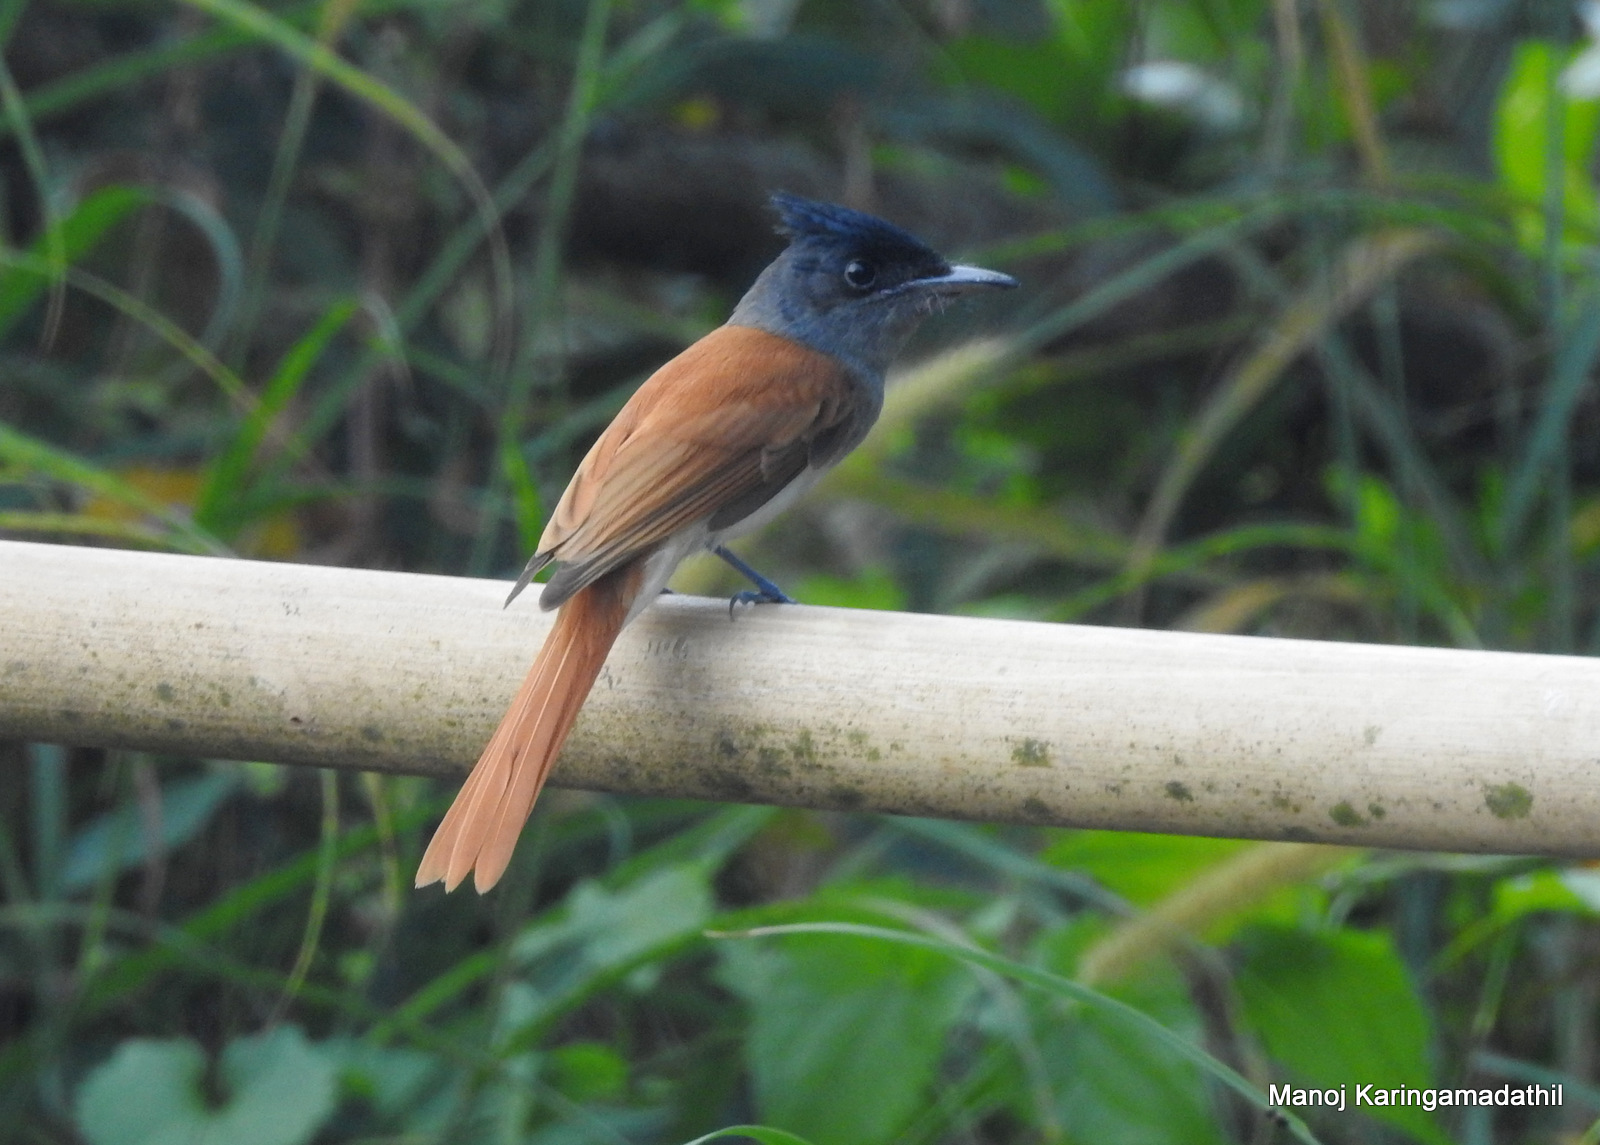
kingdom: Animalia
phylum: Chordata
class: Aves
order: Passeriformes
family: Monarchidae
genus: Terpsiphone
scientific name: Terpsiphone paradisi
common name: Indian paradise flycatcher
